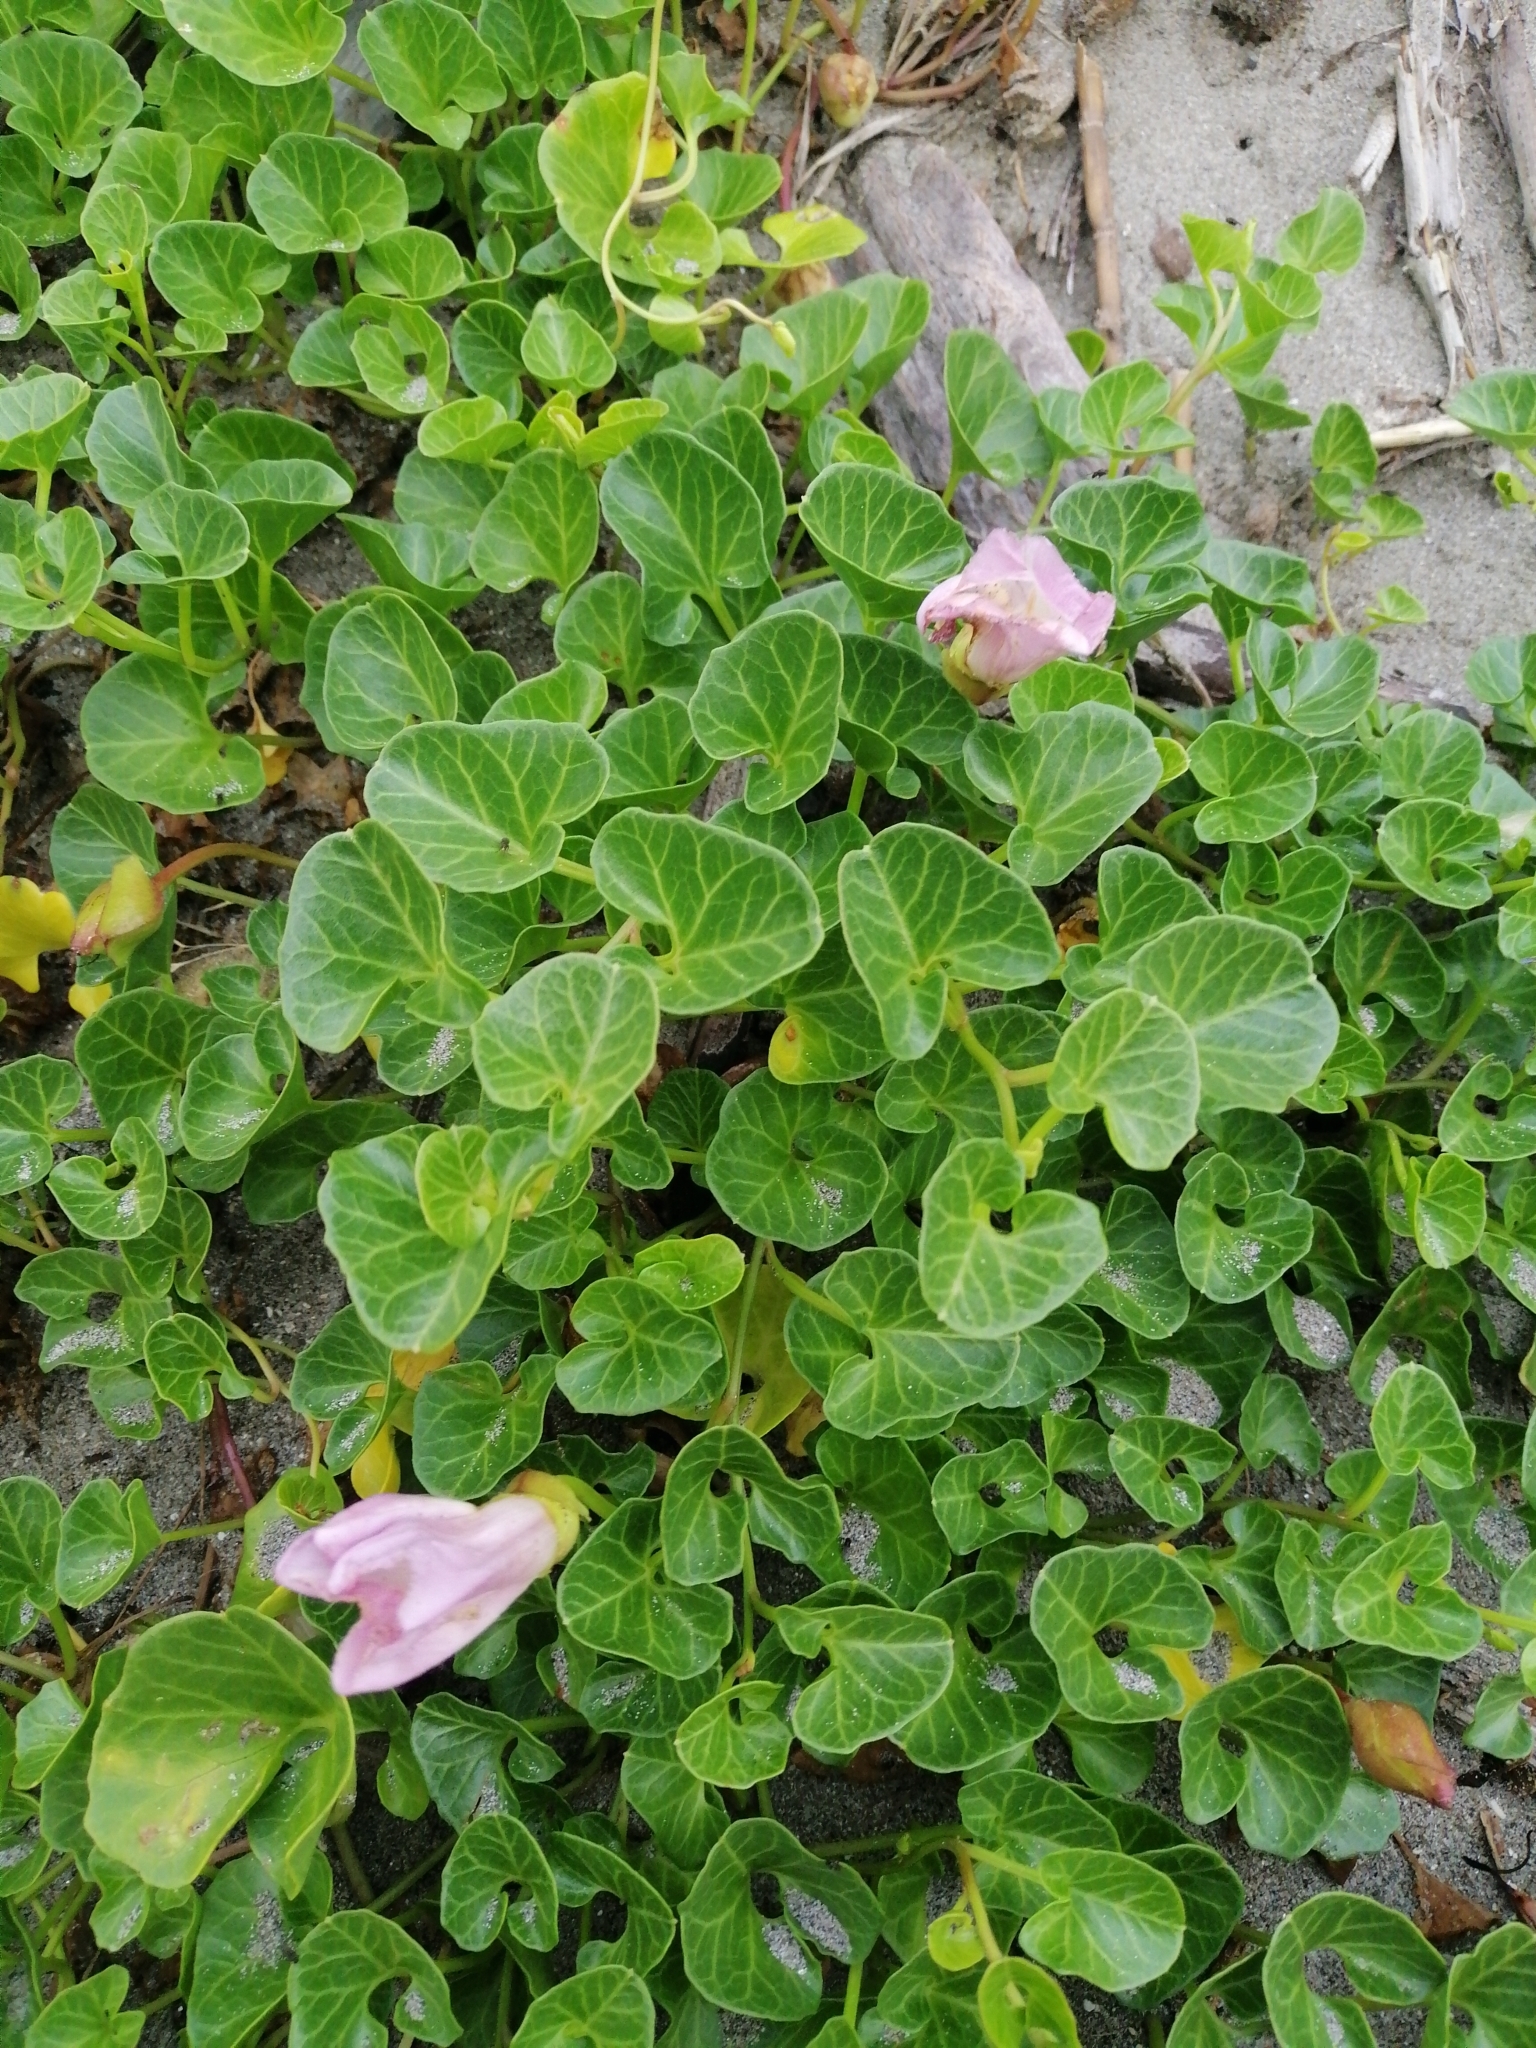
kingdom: Plantae
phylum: Tracheophyta
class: Magnoliopsida
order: Solanales
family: Convolvulaceae
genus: Calystegia
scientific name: Calystegia soldanella
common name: Sea bindweed
